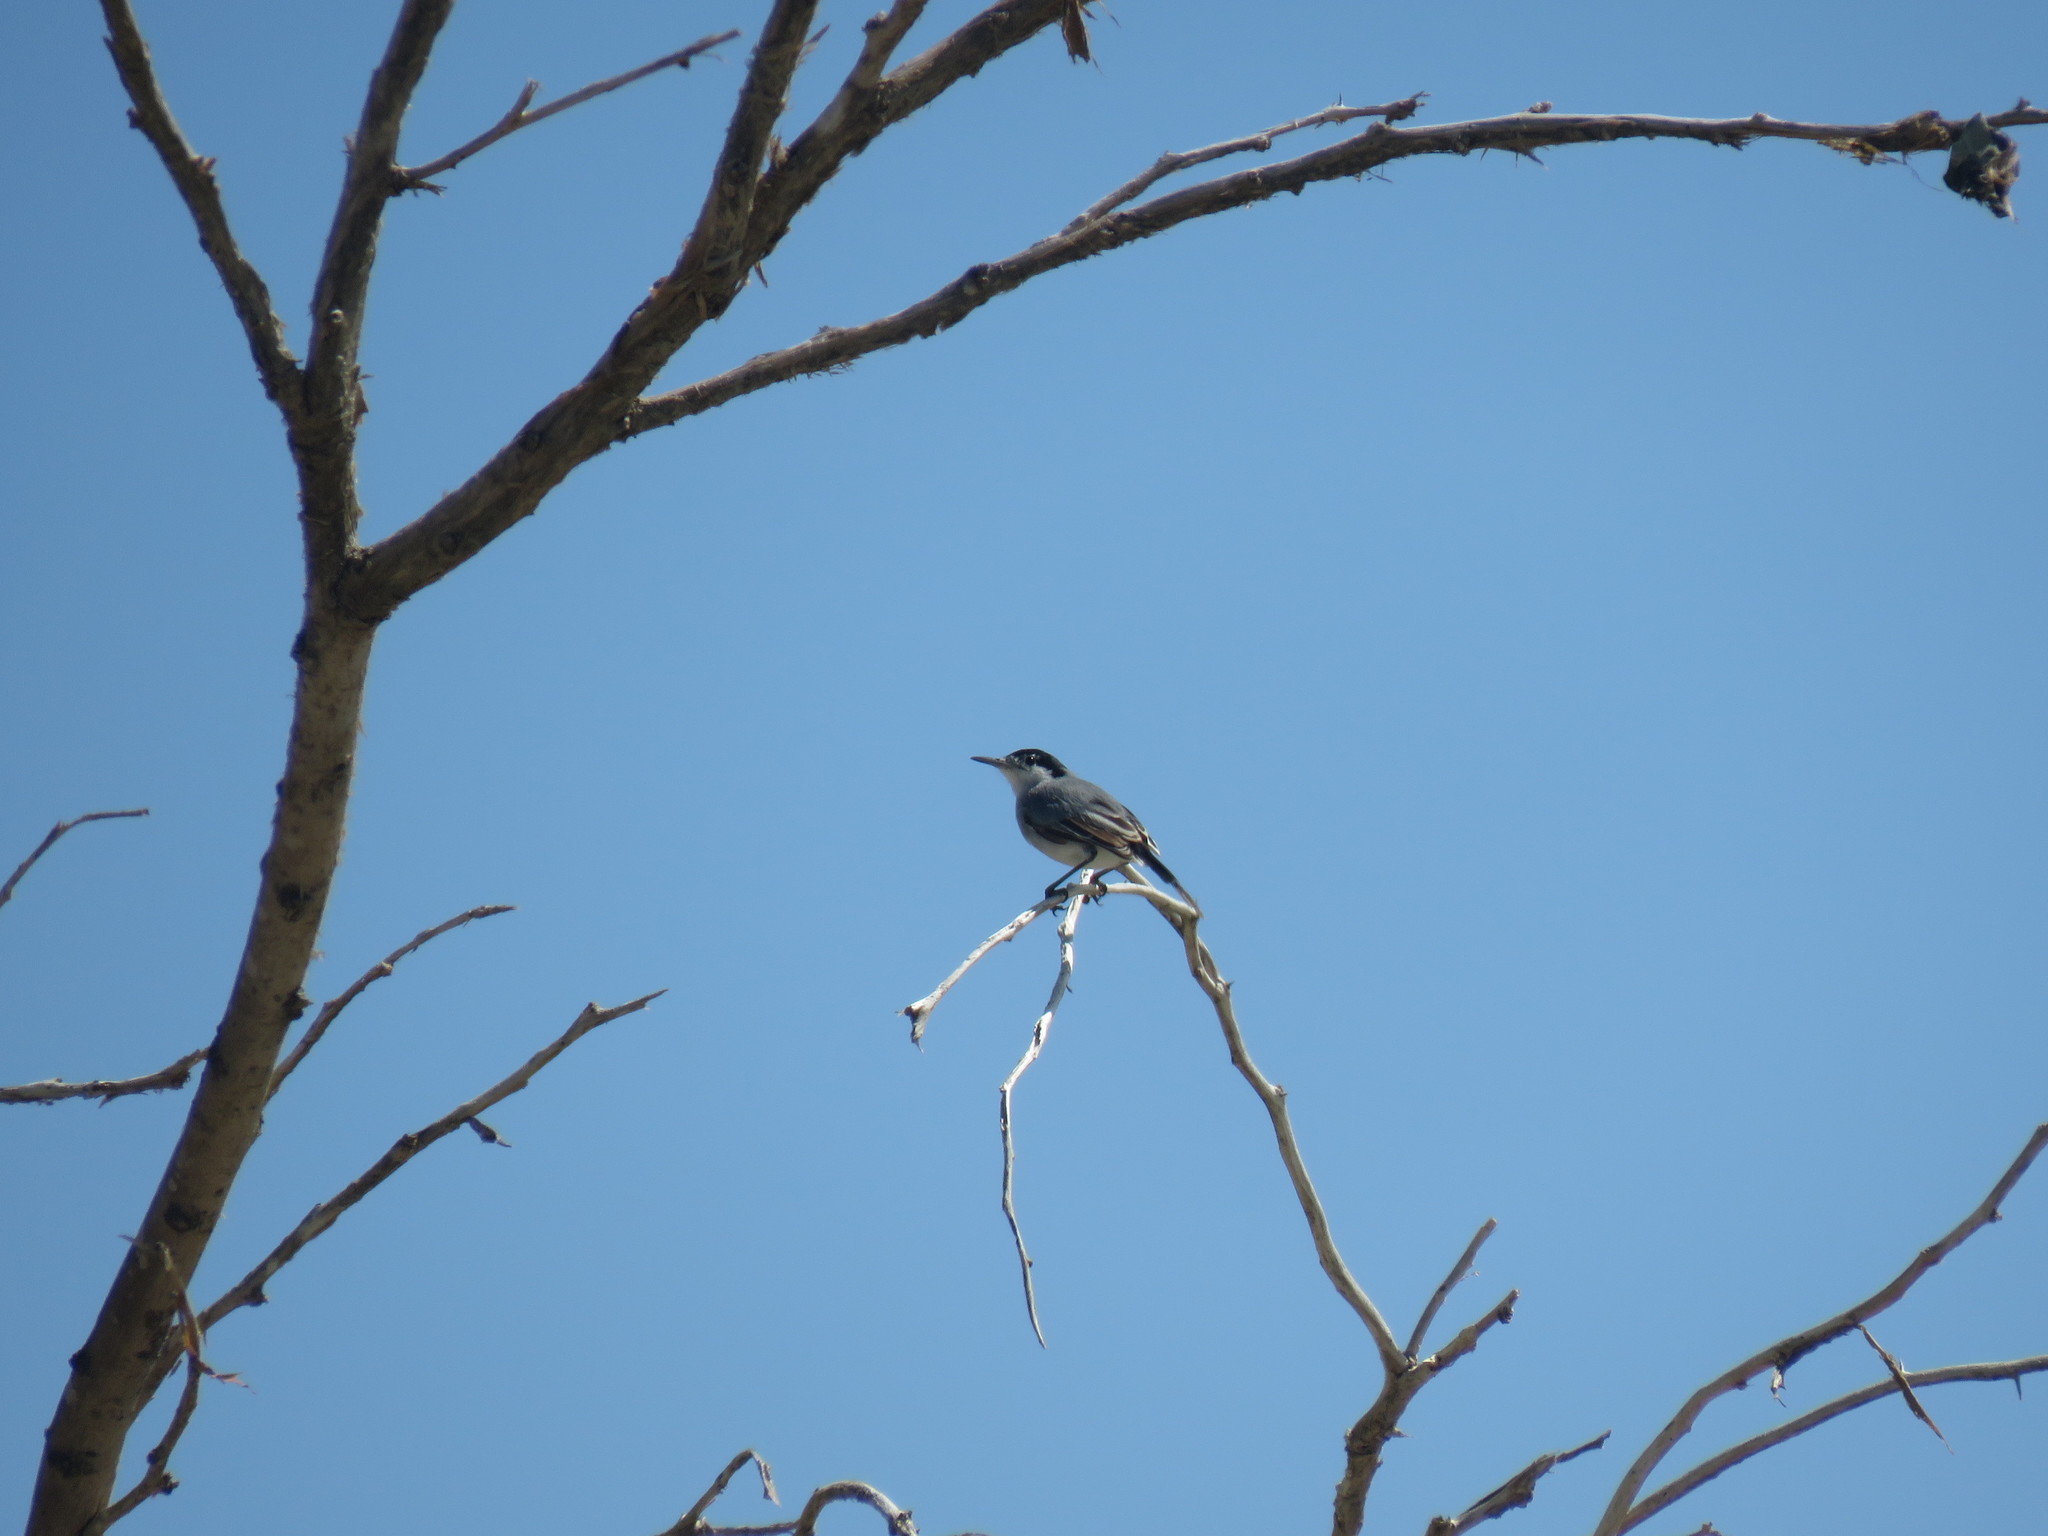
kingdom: Animalia
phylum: Chordata
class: Aves
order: Passeriformes
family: Polioptilidae
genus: Polioptila
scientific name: Polioptila plumbea
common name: Tropical gnatcatcher
